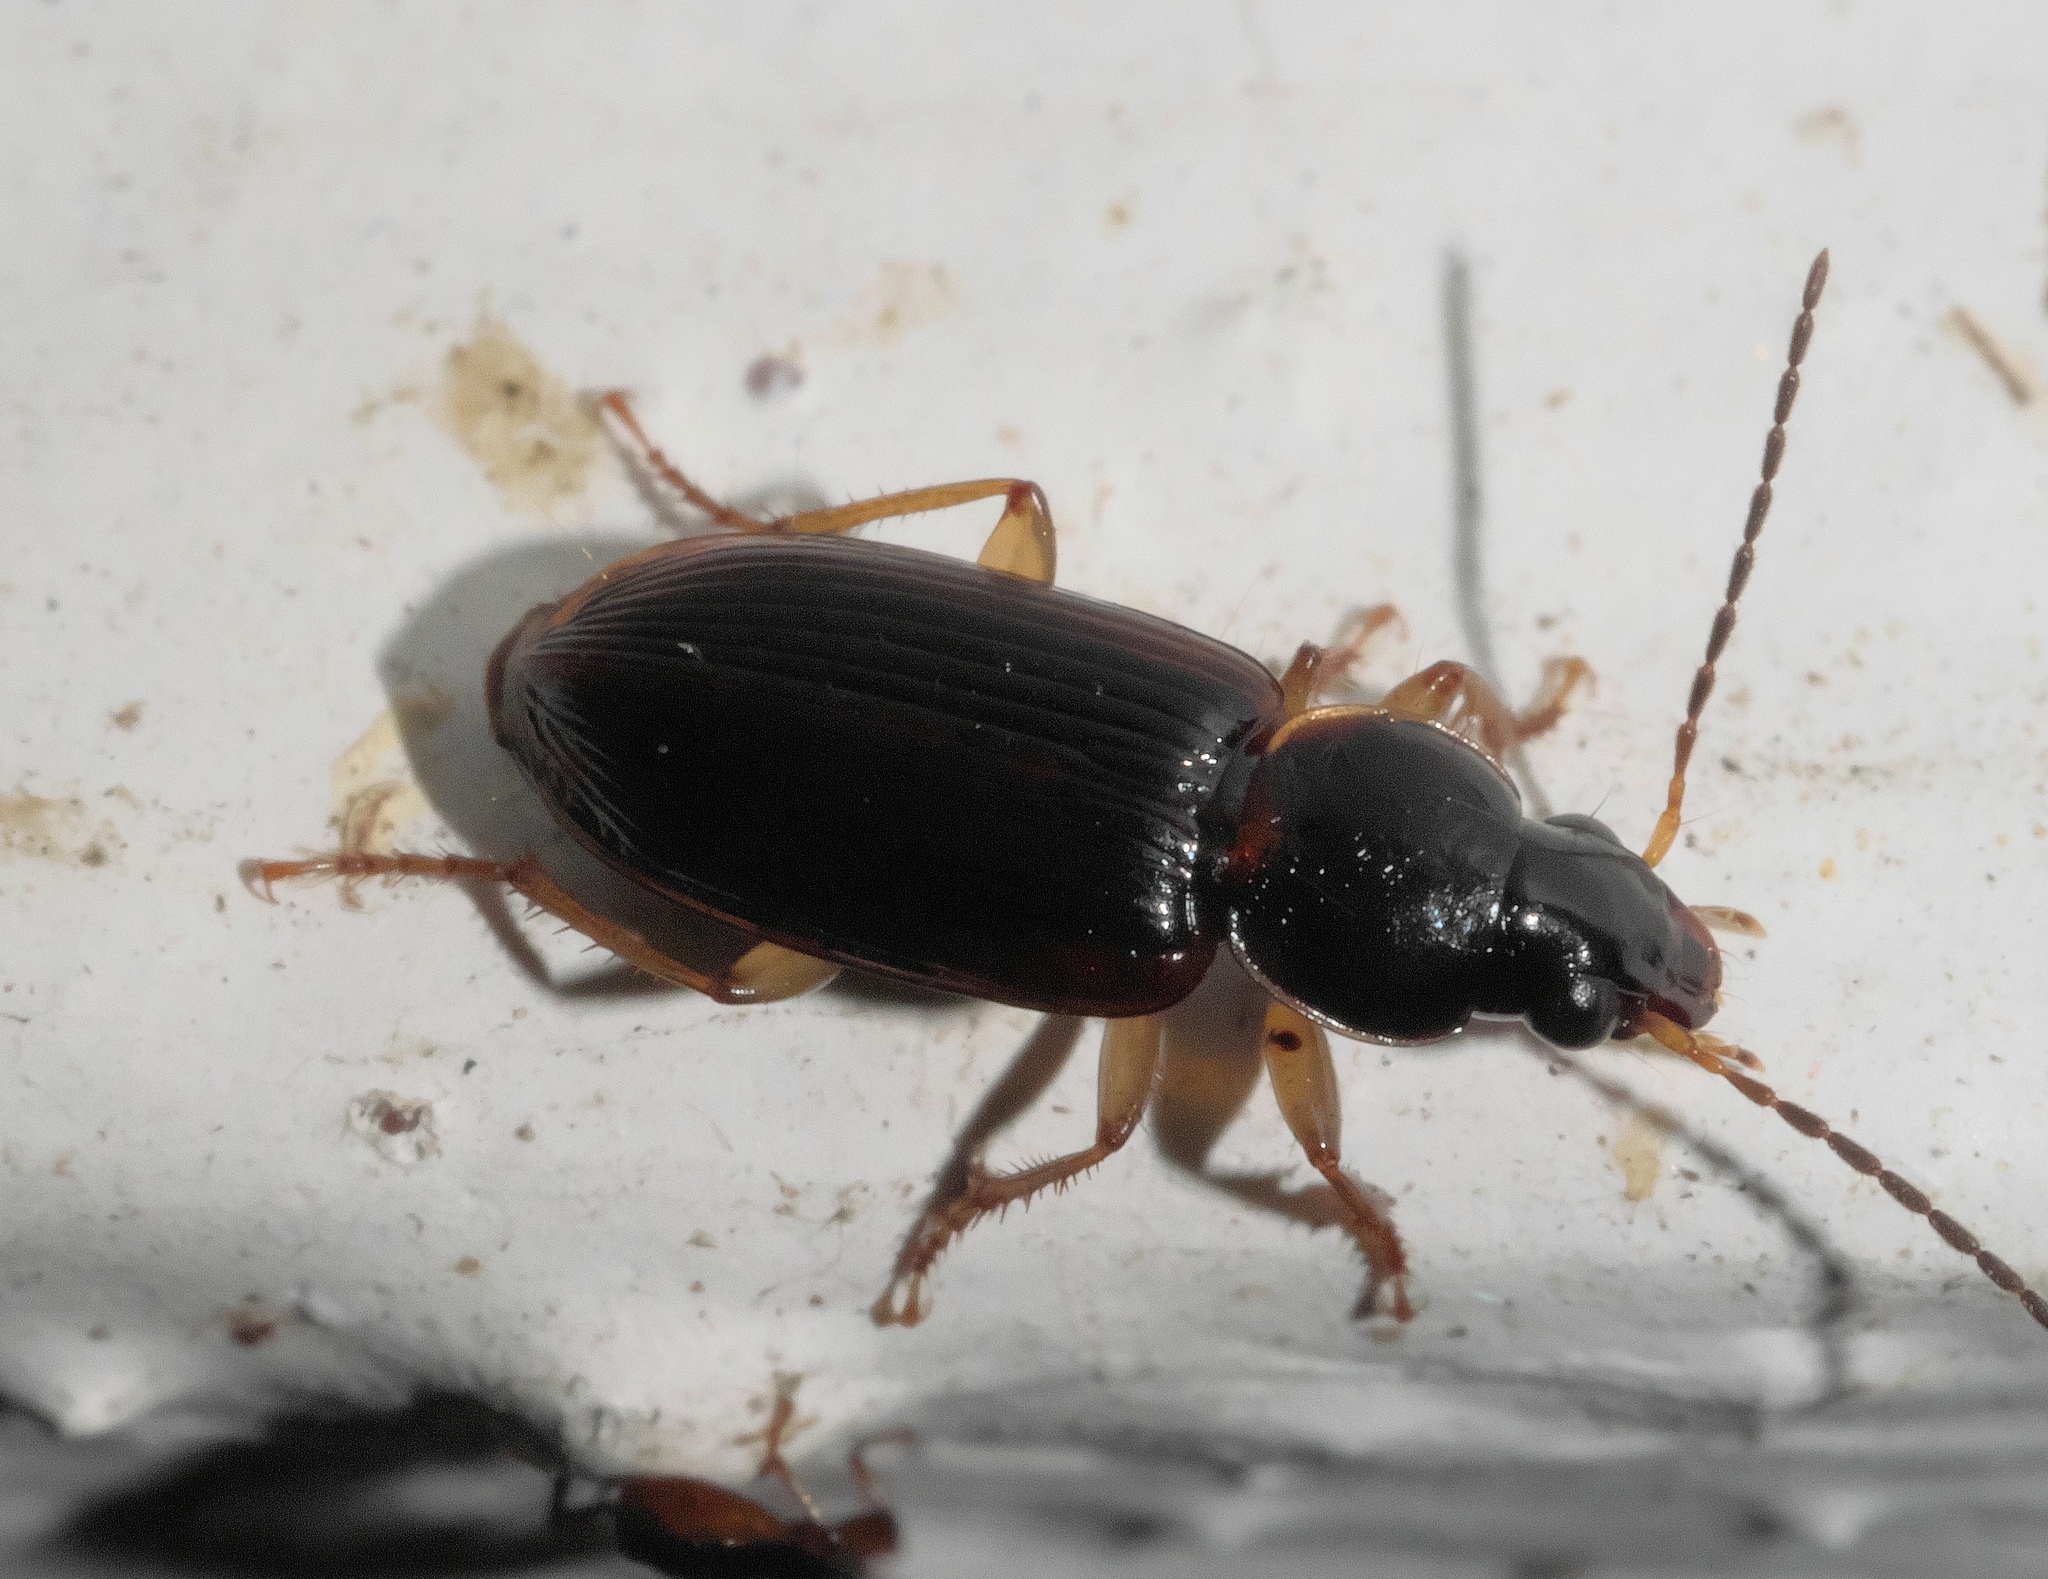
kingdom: Animalia
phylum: Arthropoda
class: Insecta
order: Coleoptera
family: Carabidae
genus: Stenolophus
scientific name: Stenolophus ochropezus
